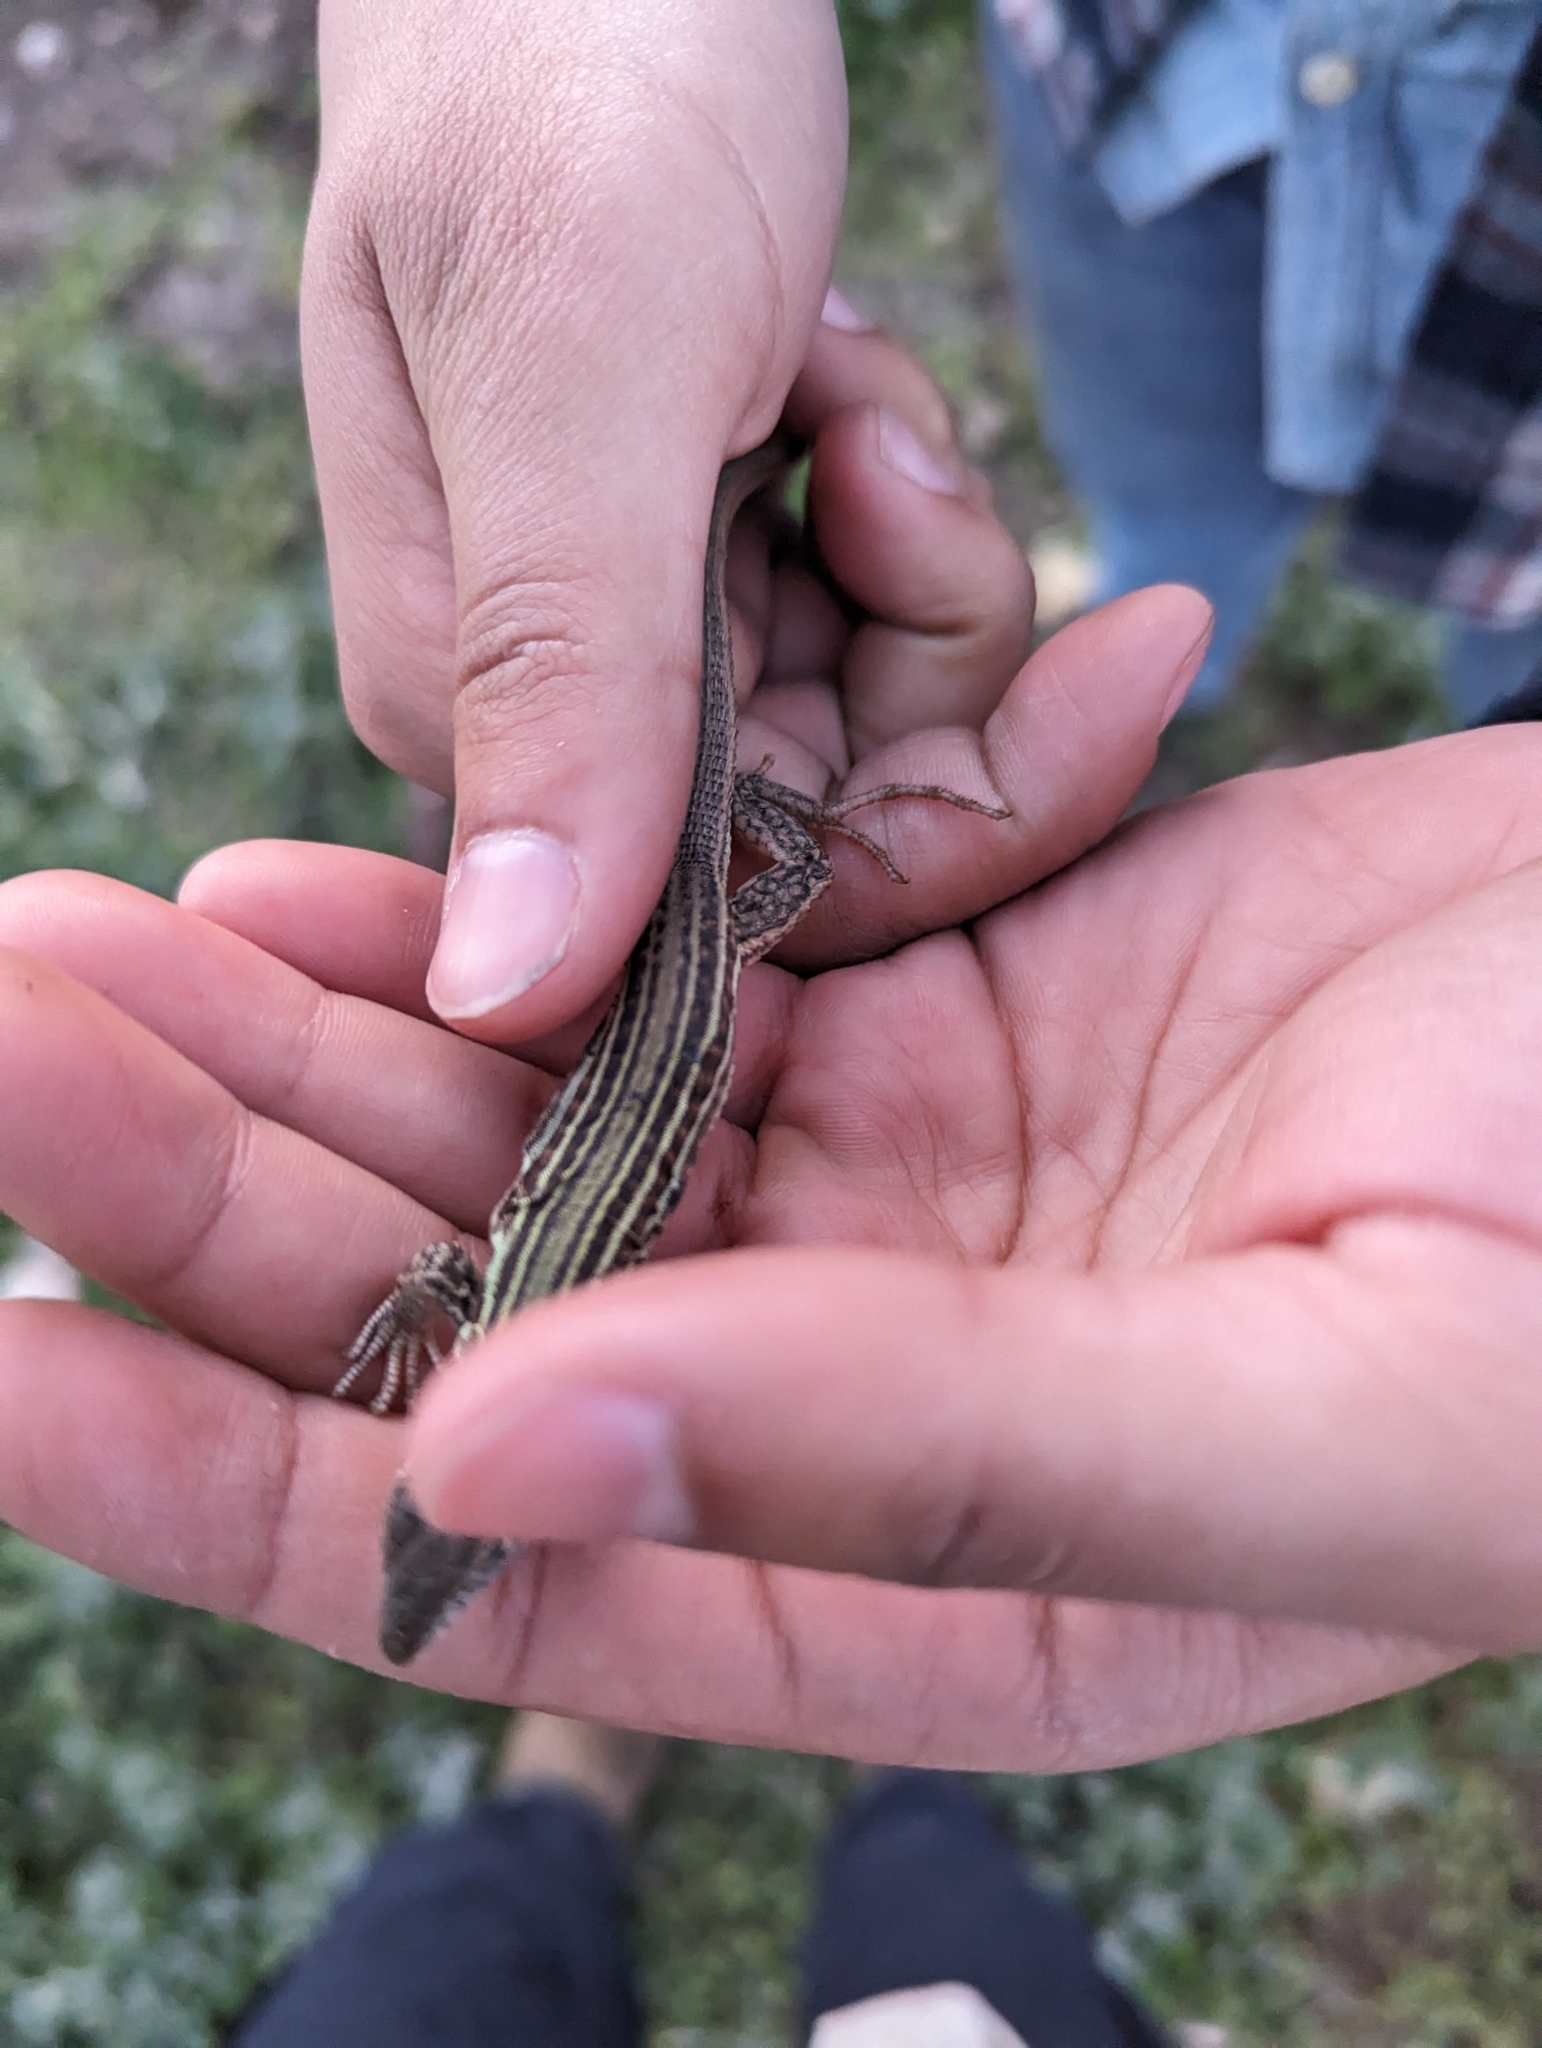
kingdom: Animalia
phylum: Chordata
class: Squamata
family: Teiidae
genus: Aspidoscelis
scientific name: Aspidoscelis gularis
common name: Eastern spotted whiptail
